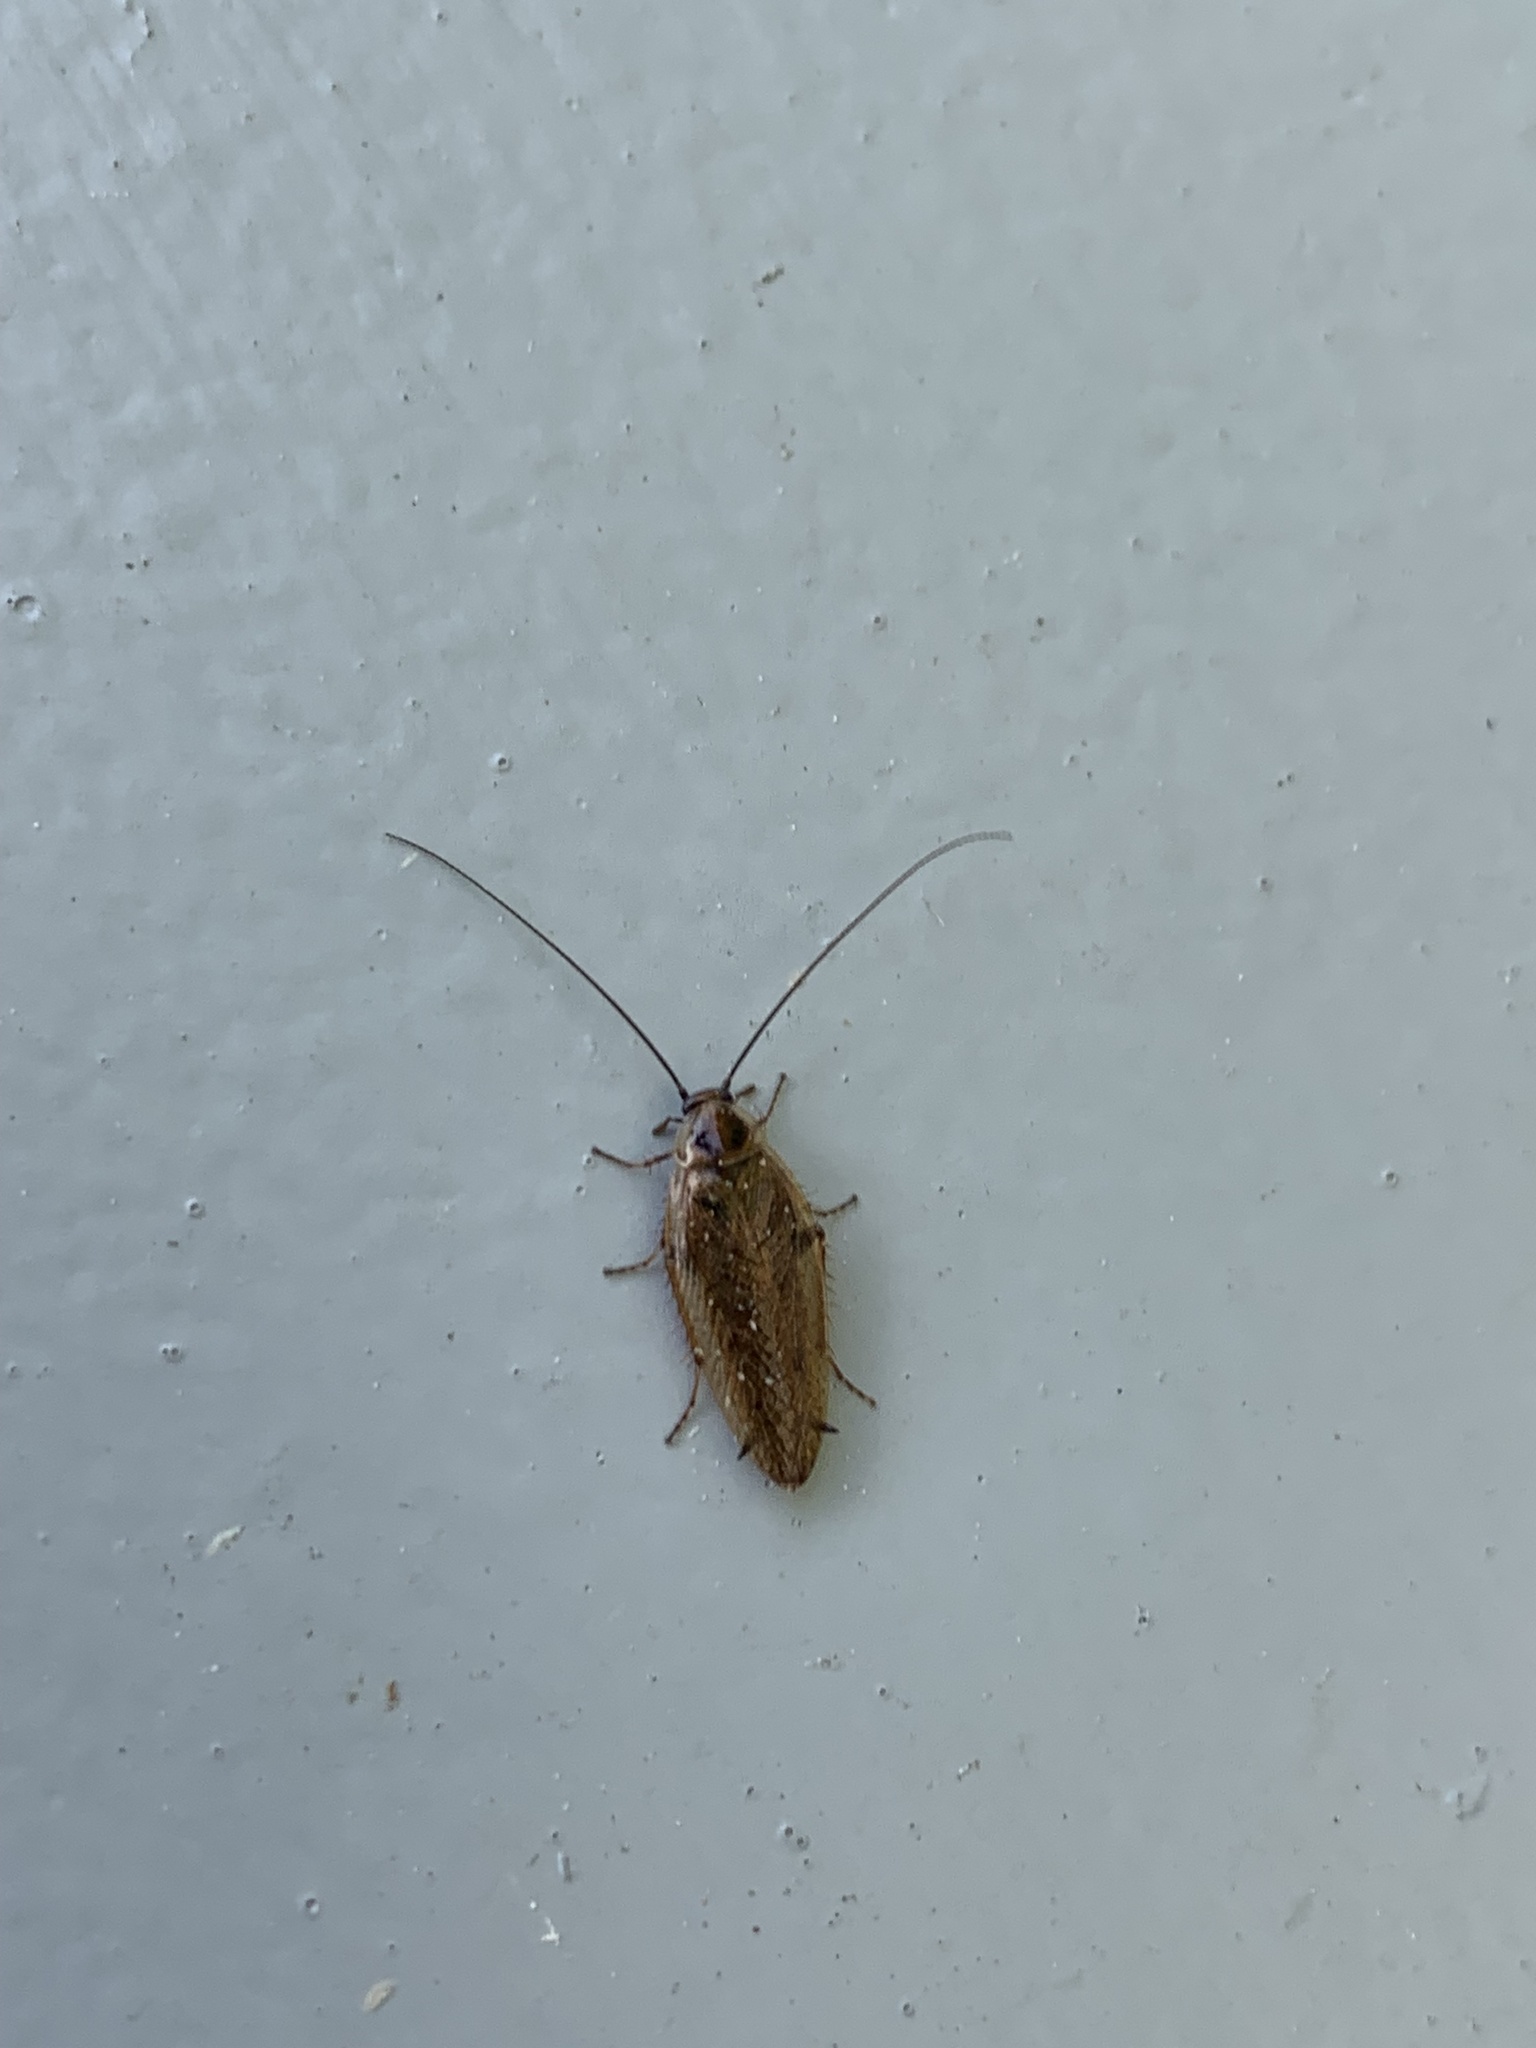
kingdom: Animalia
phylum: Arthropoda
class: Insecta
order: Blattodea
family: Ectobiidae
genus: Ectobius
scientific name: Ectobius lapponicus
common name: Dusky cockroach
